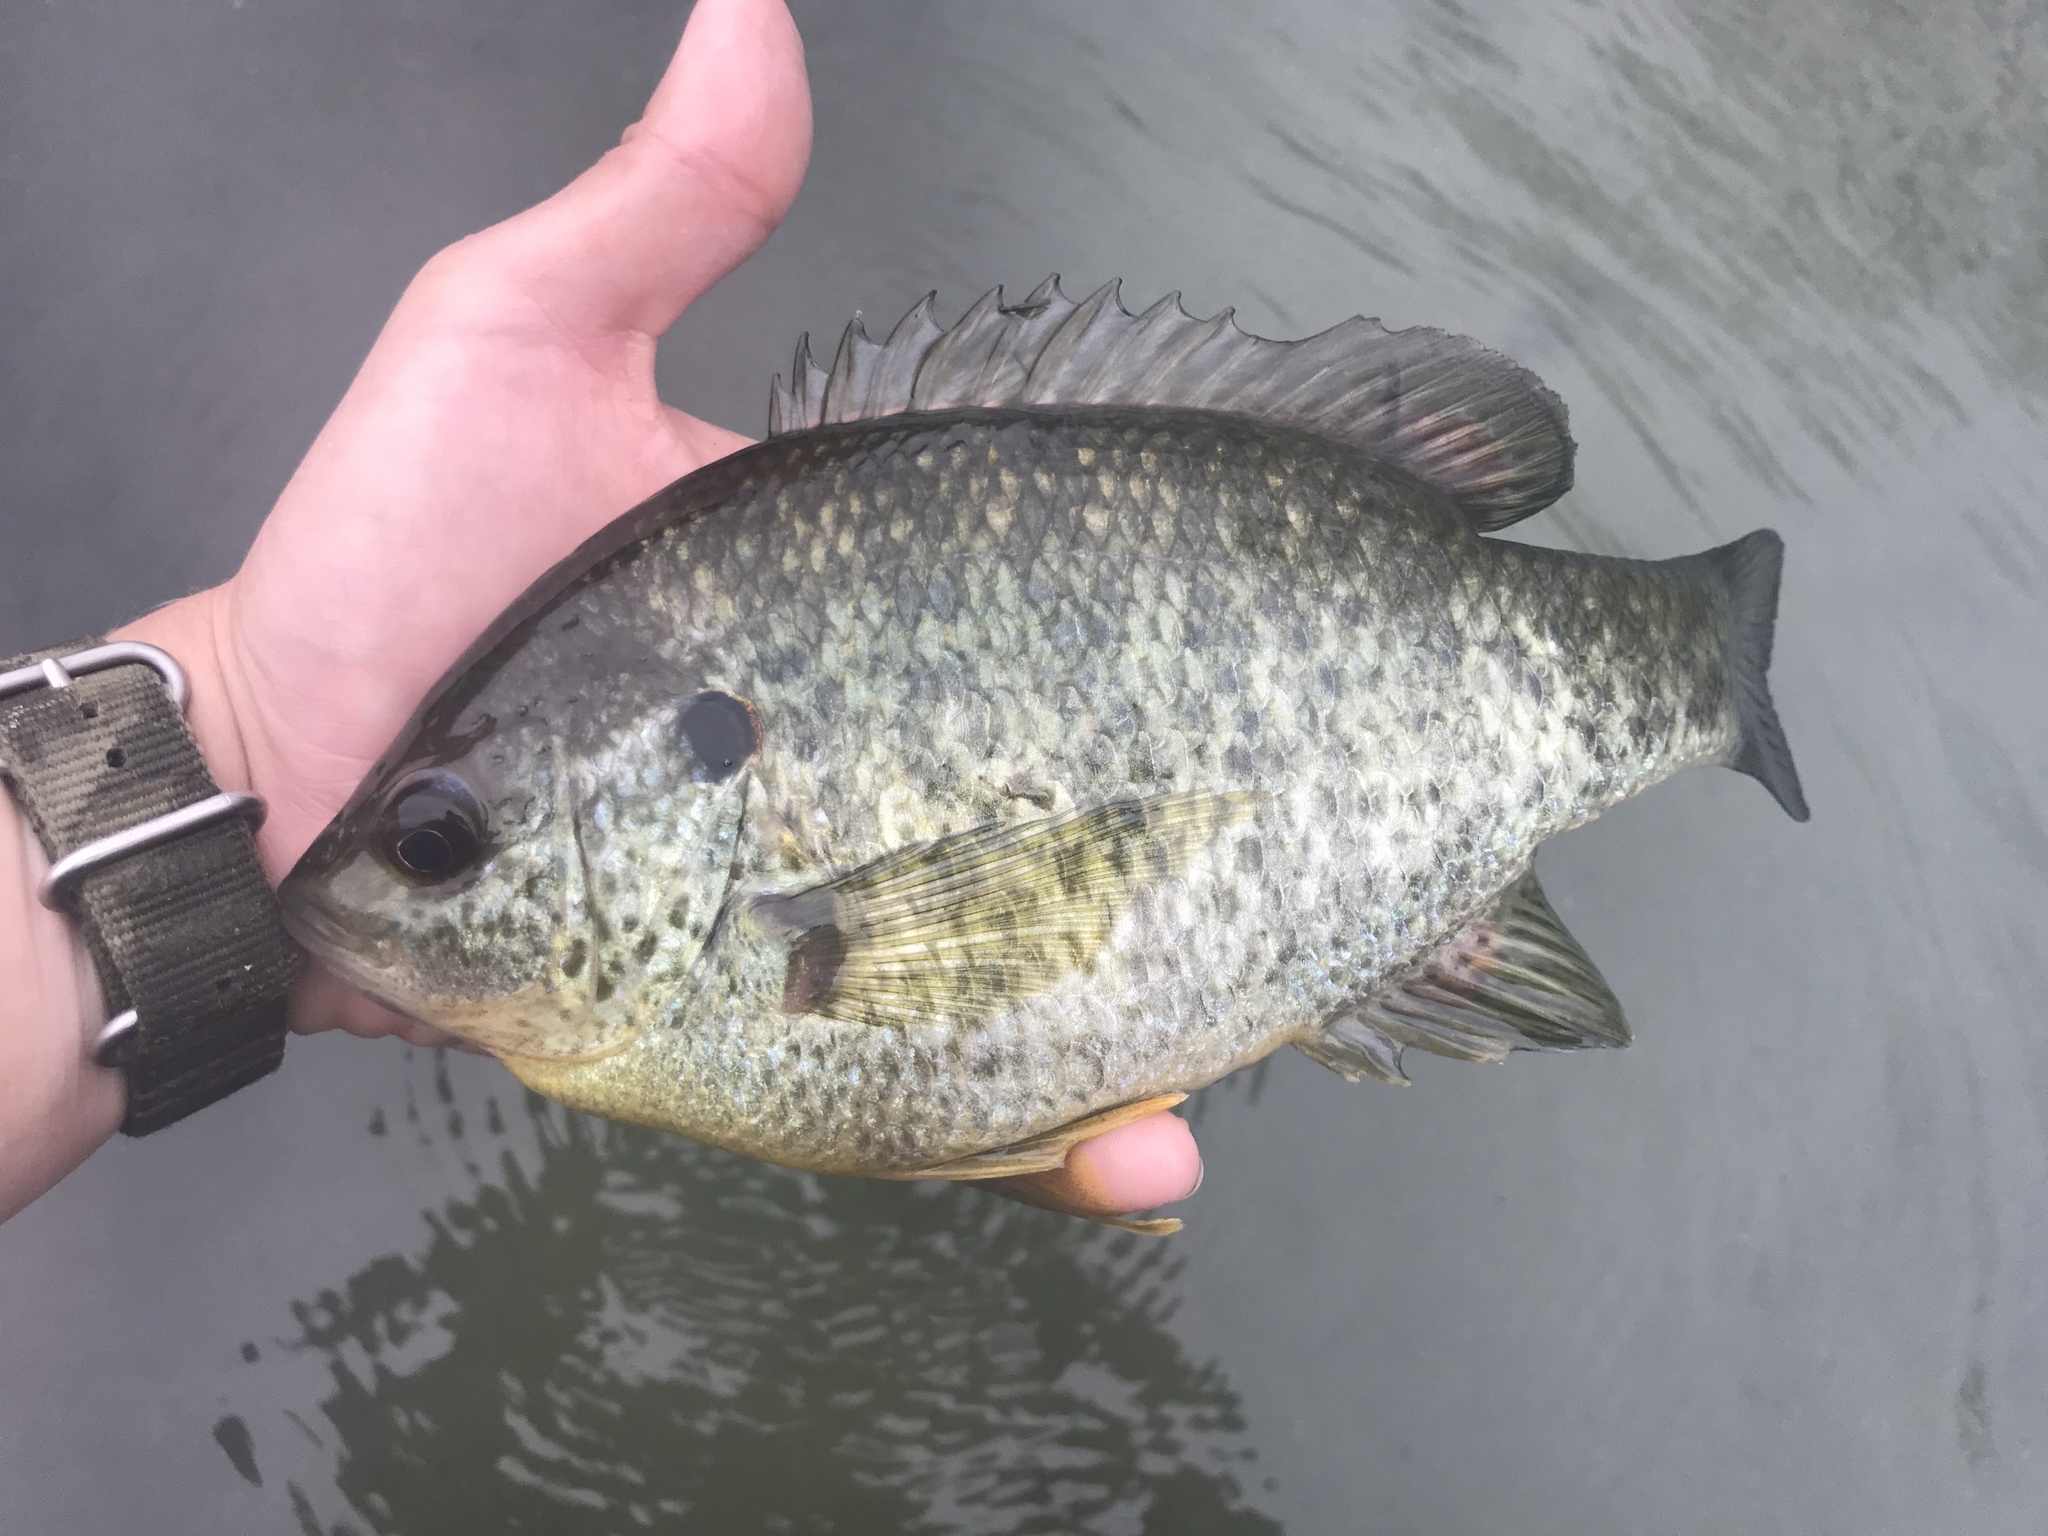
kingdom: Animalia
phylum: Chordata
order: Perciformes
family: Centrarchidae
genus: Lepomis
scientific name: Lepomis microlophus
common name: Redear sunfish
